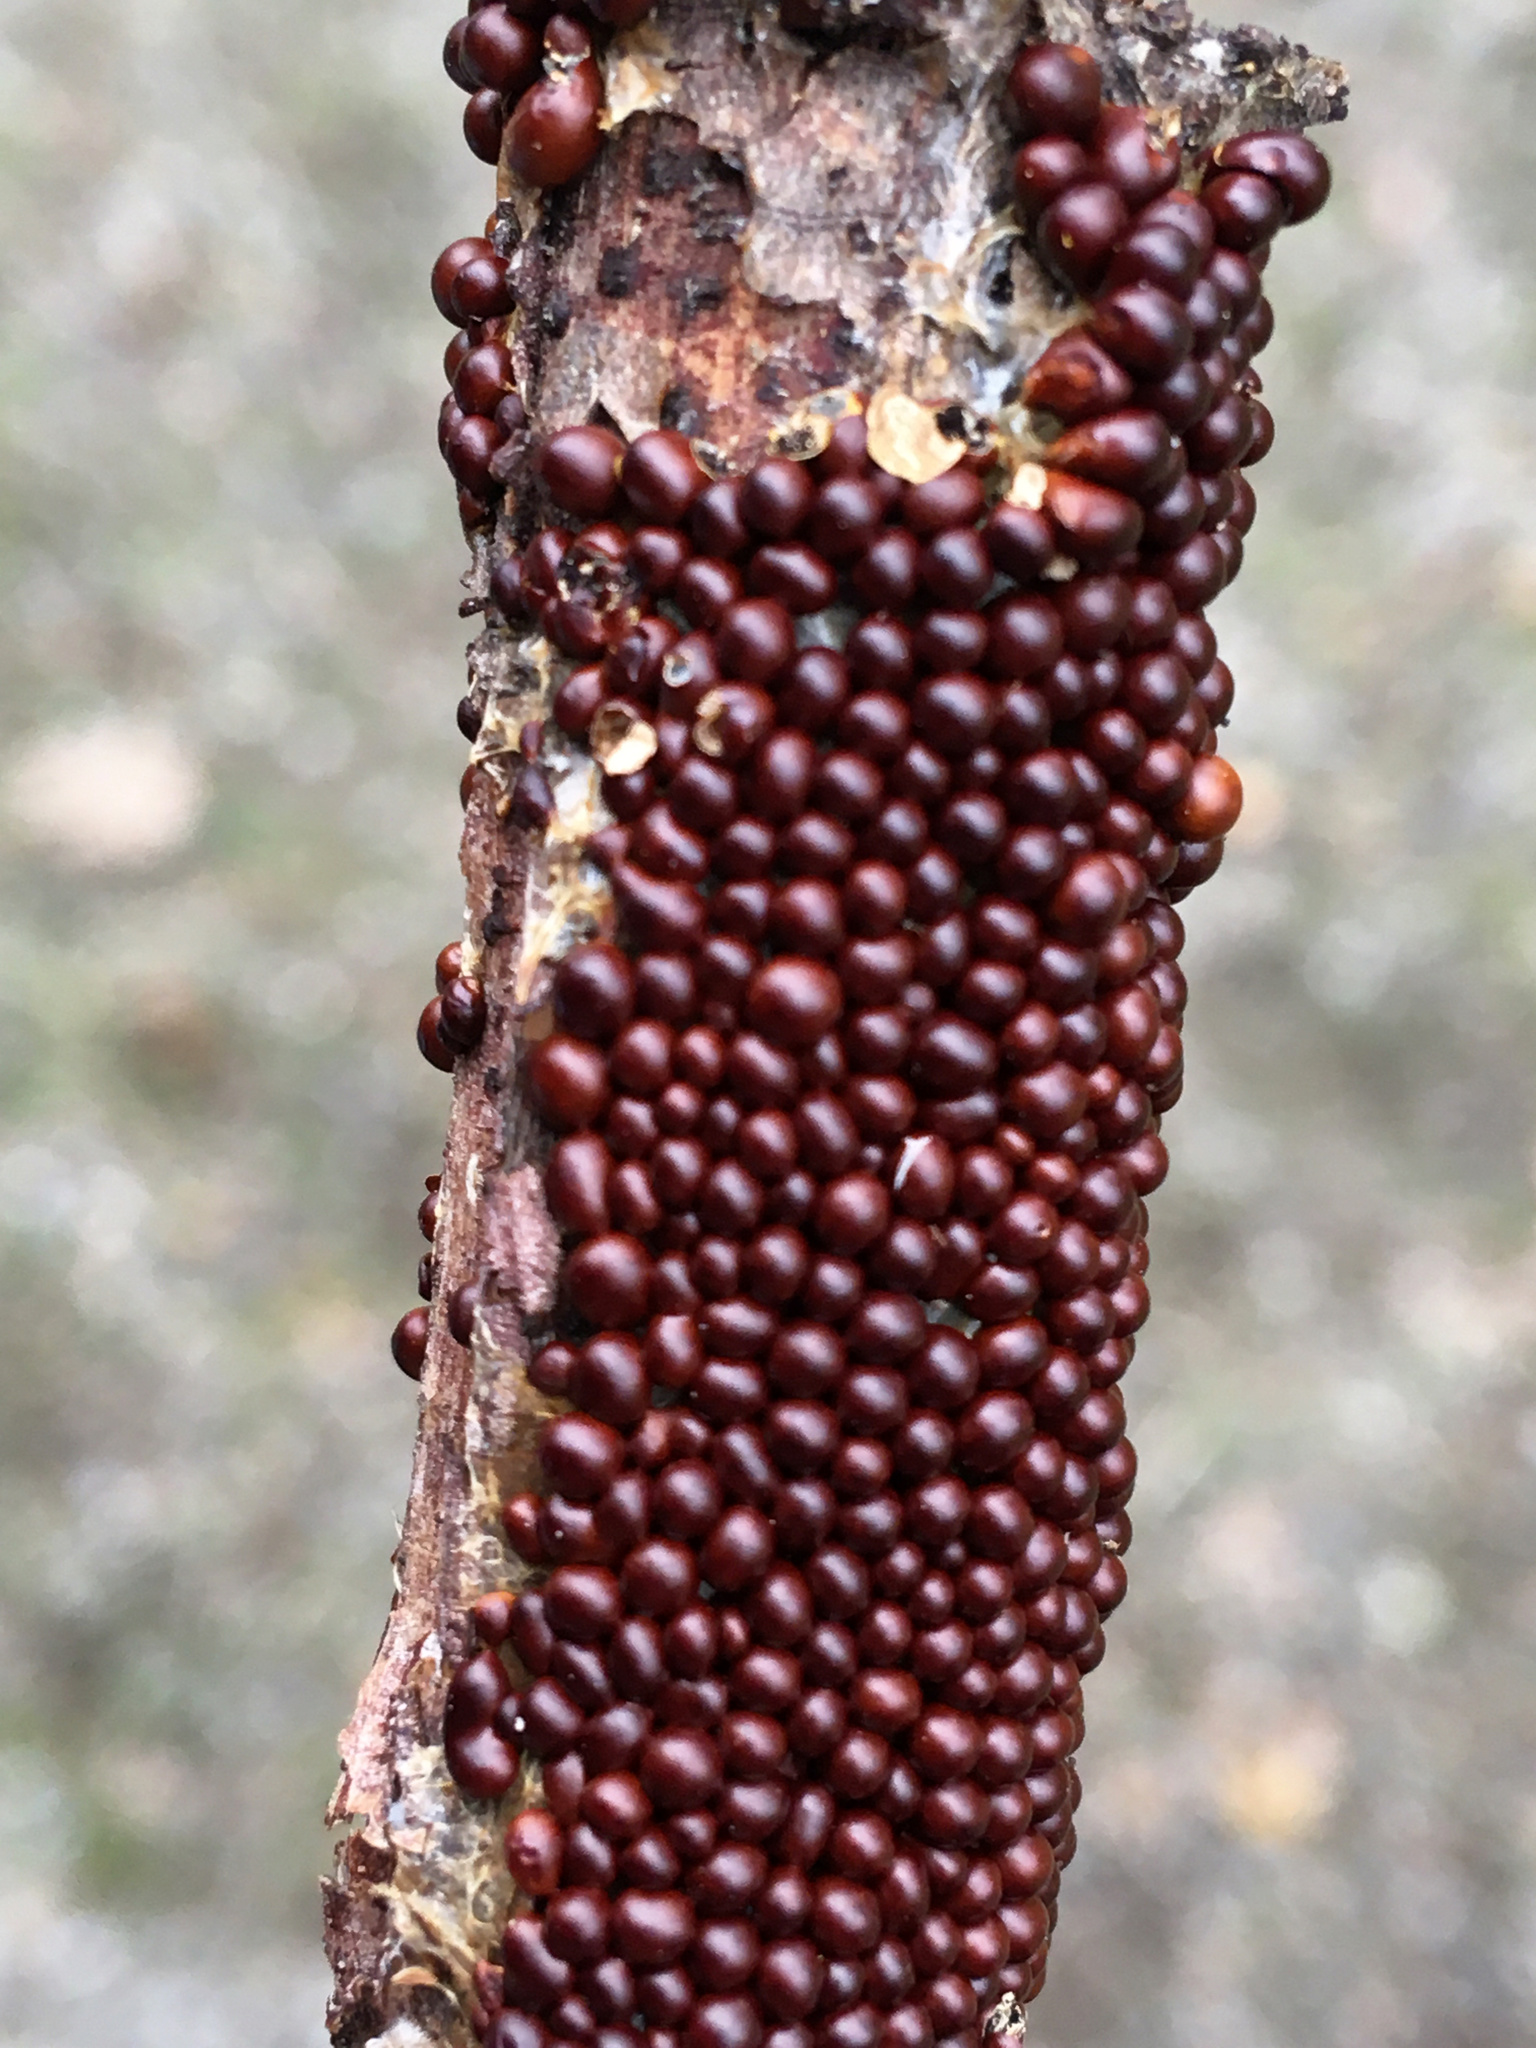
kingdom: Protozoa
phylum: Mycetozoa
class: Myxomycetes
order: Physarales
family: Physaraceae
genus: Leocarpus
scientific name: Leocarpus fragilis
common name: Insect-egg slime
